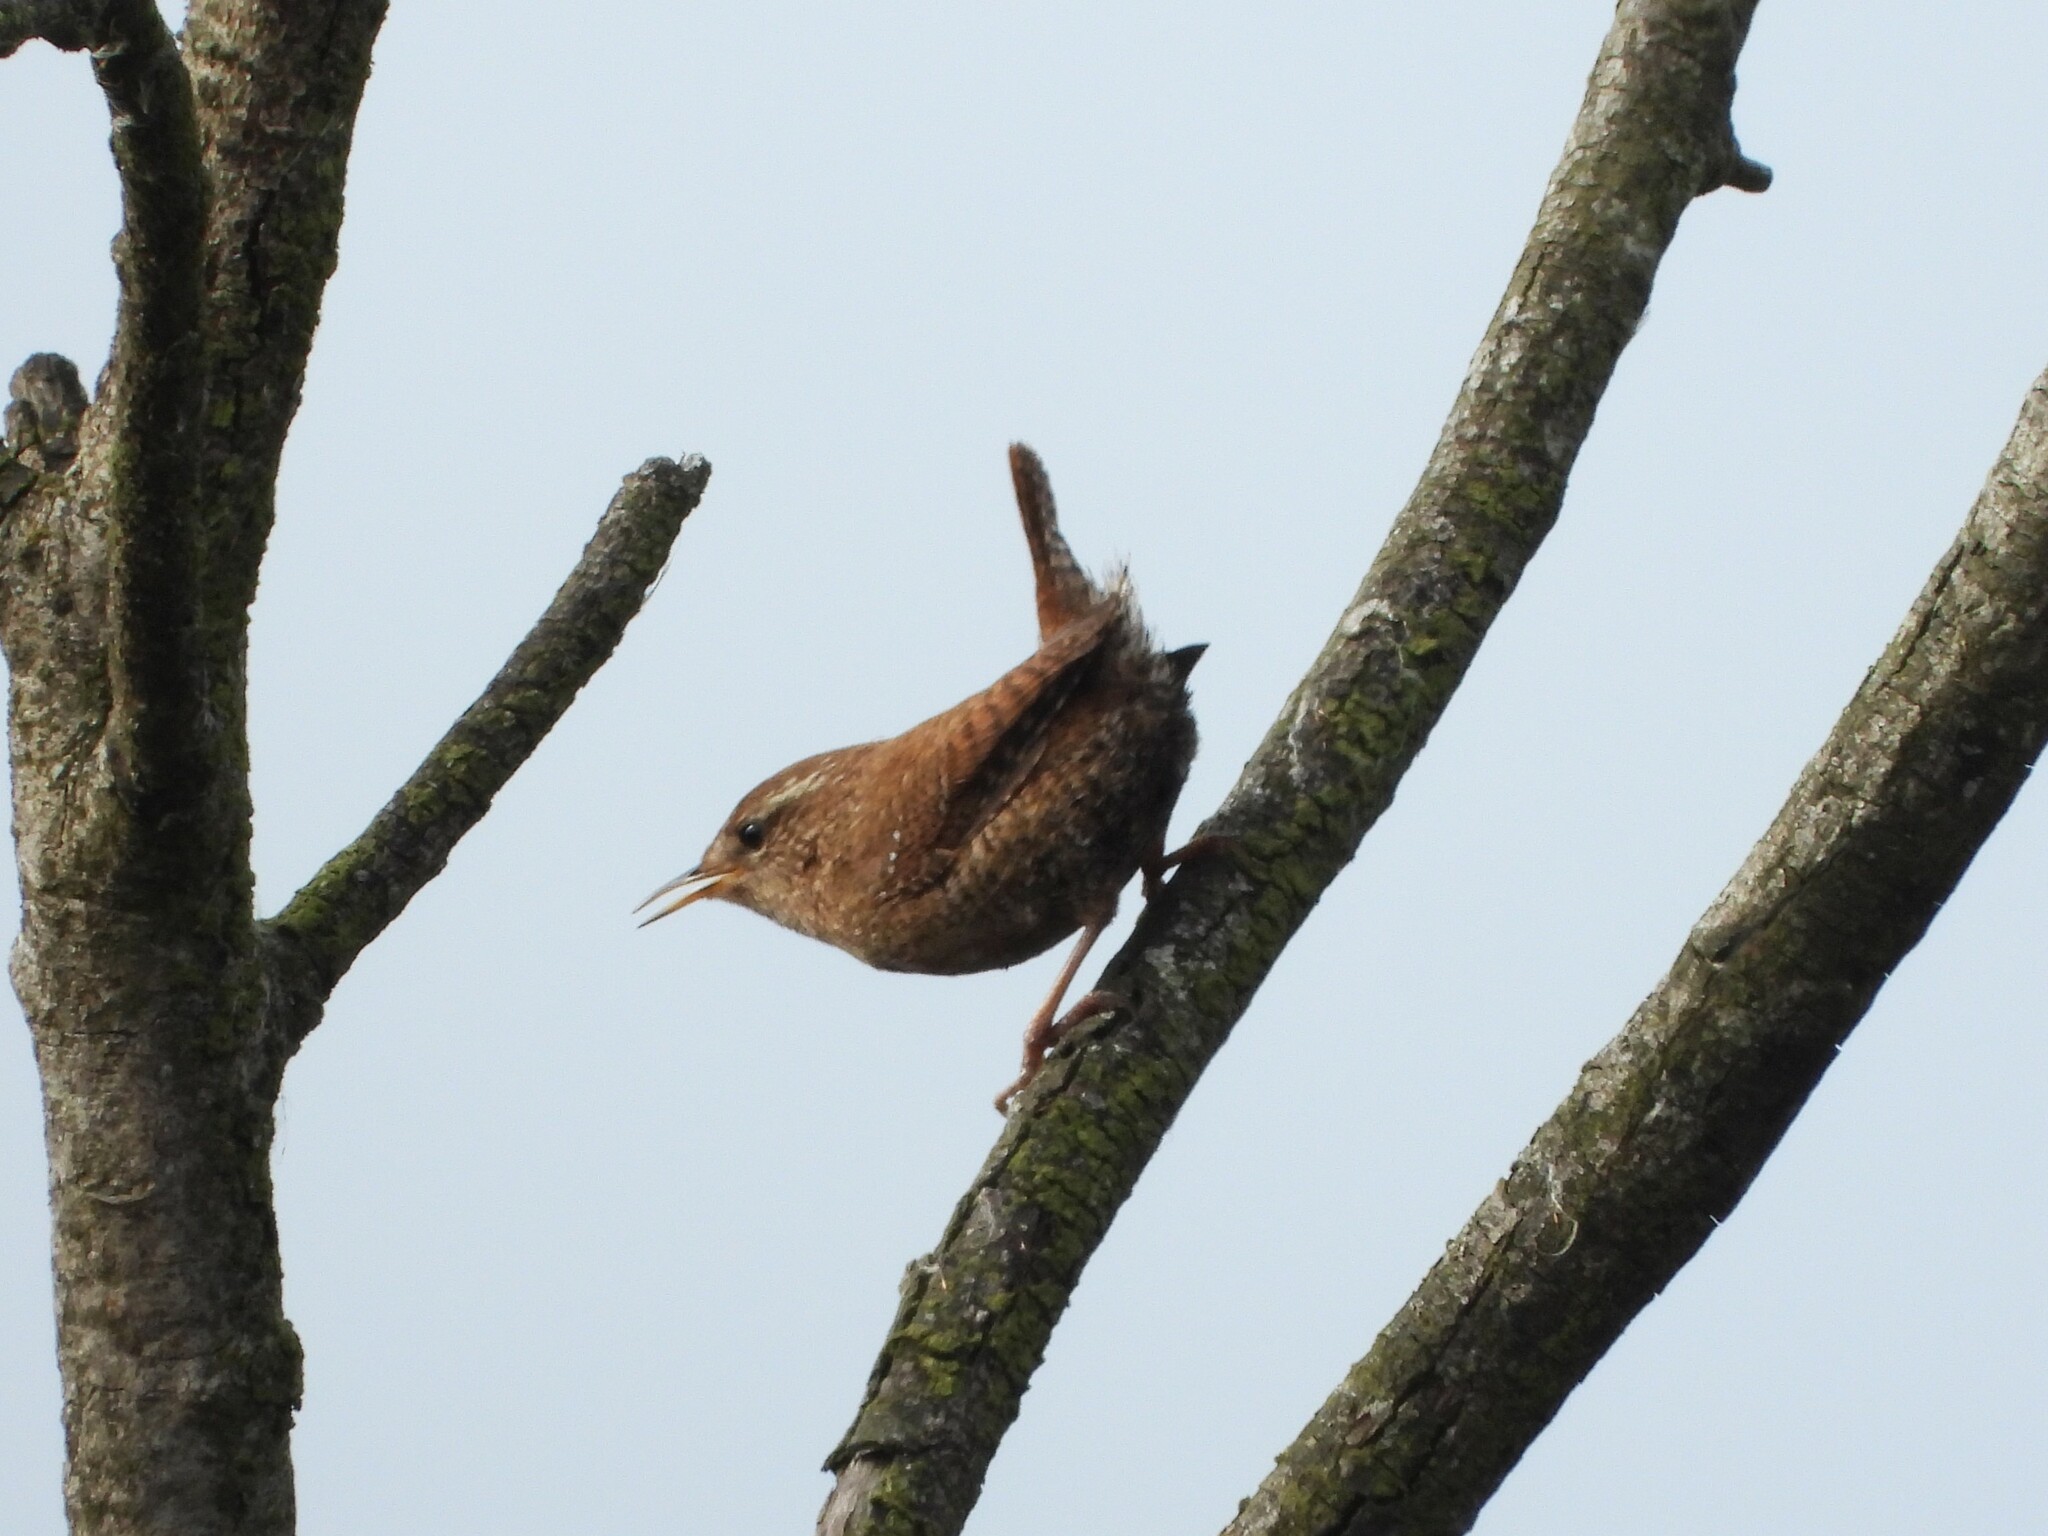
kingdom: Animalia
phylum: Chordata
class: Aves
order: Passeriformes
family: Troglodytidae
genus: Troglodytes
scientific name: Troglodytes troglodytes
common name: Eurasian wren
